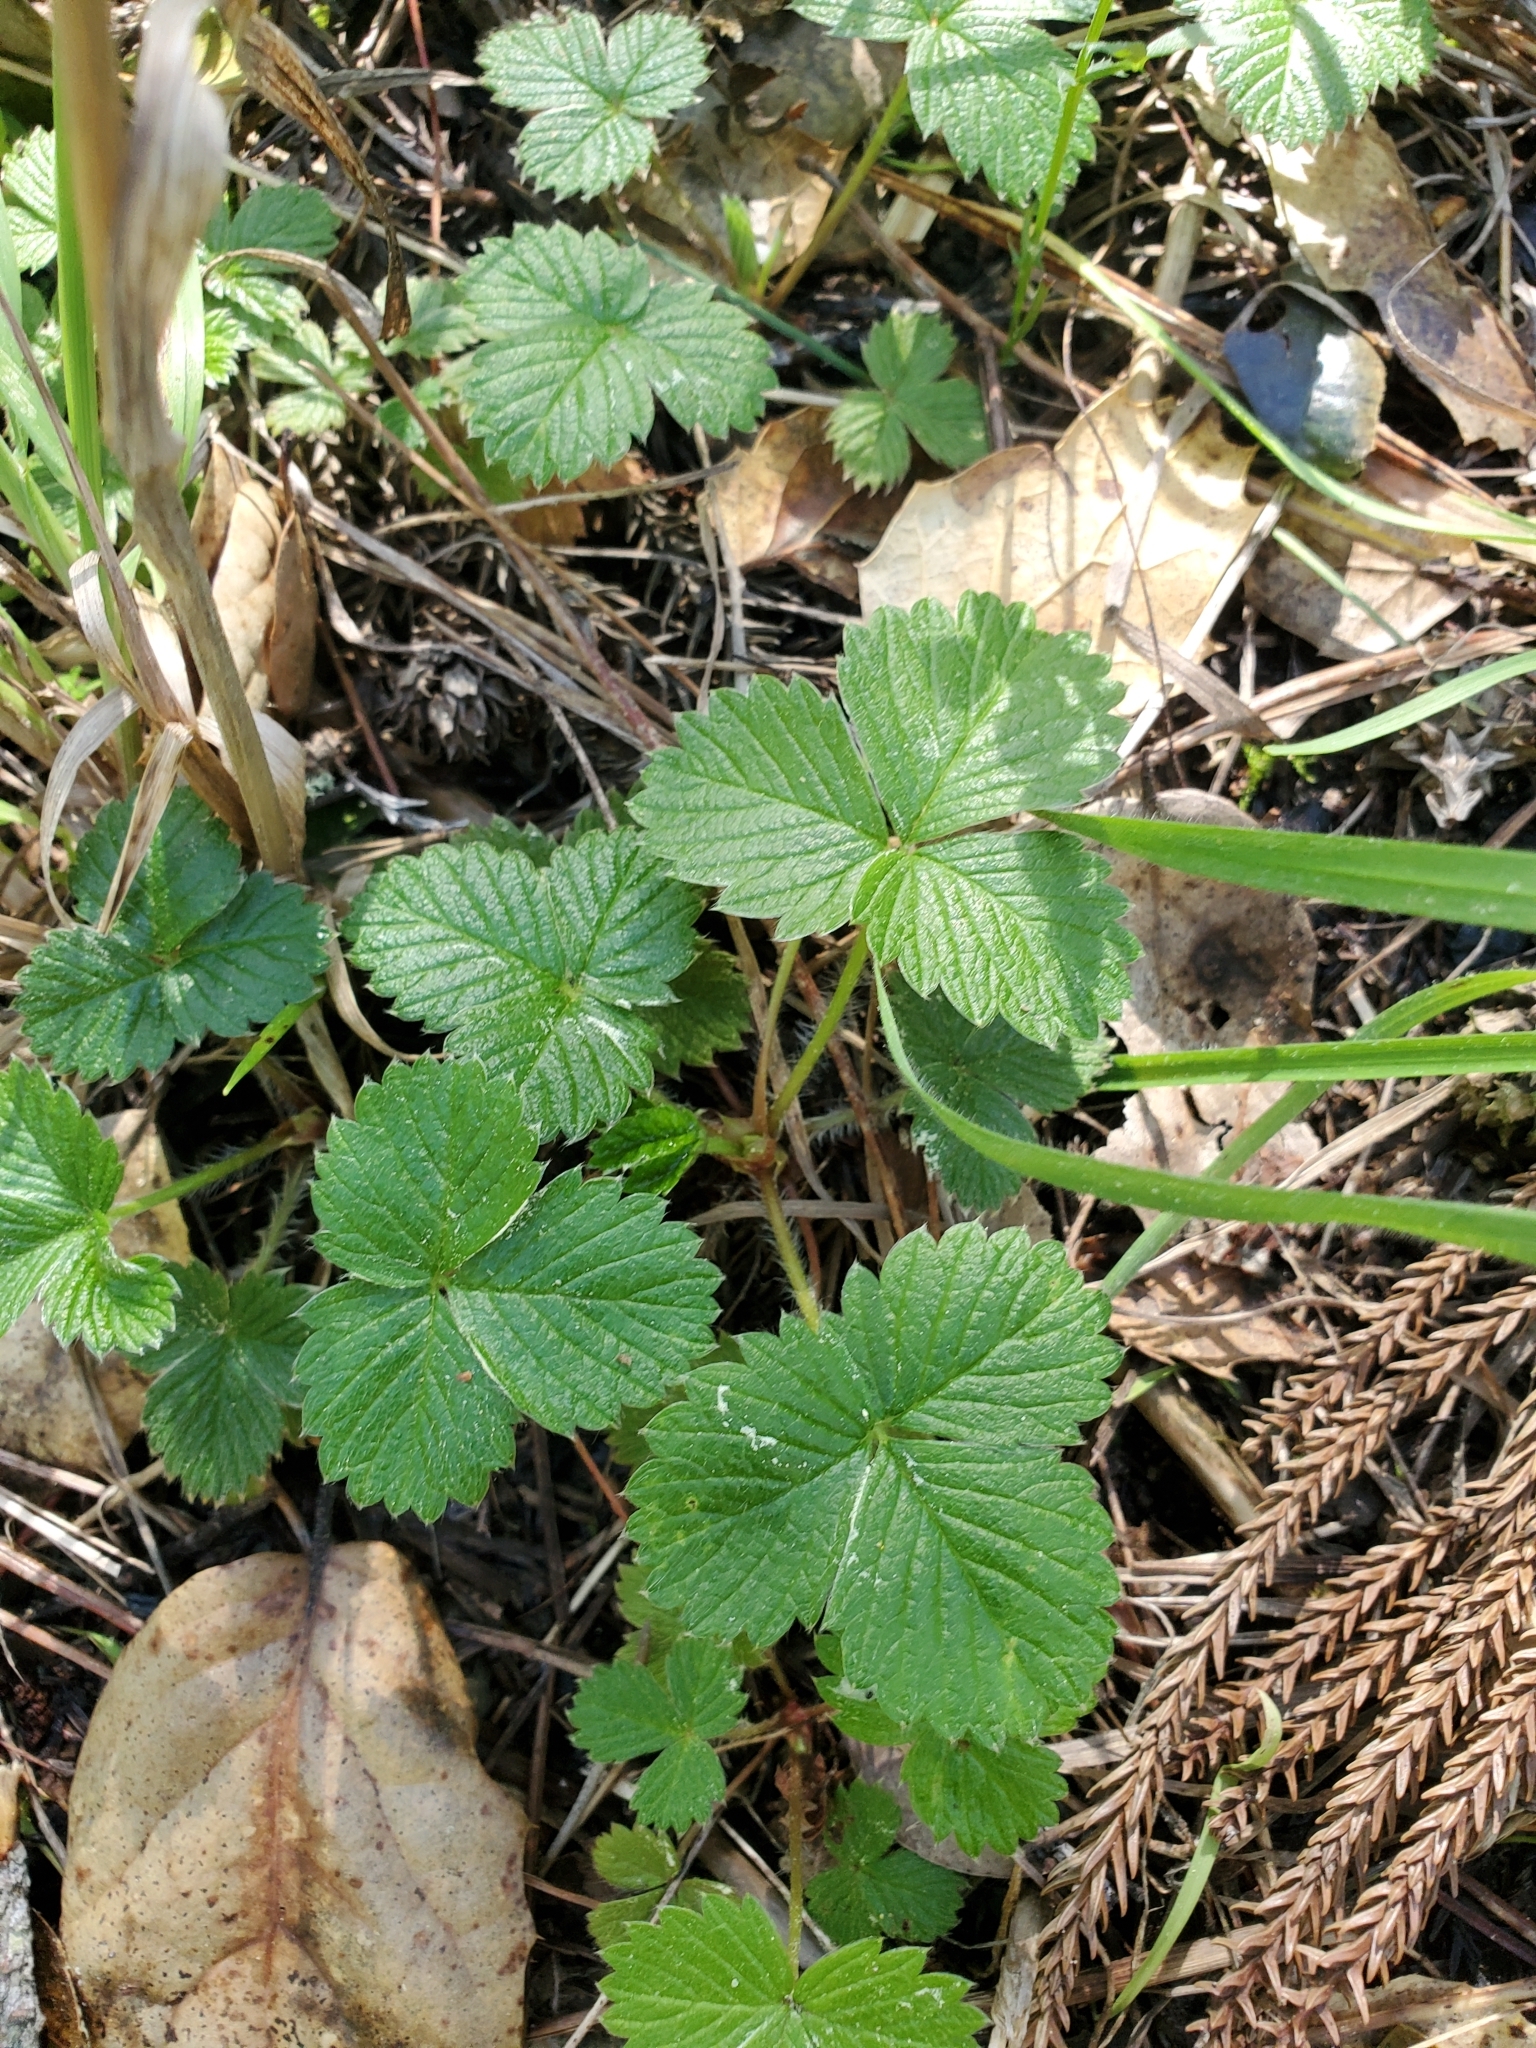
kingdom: Plantae
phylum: Tracheophyta
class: Magnoliopsida
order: Rosales
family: Rosaceae
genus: Fragaria
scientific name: Fragaria vesca
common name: Wild strawberry
